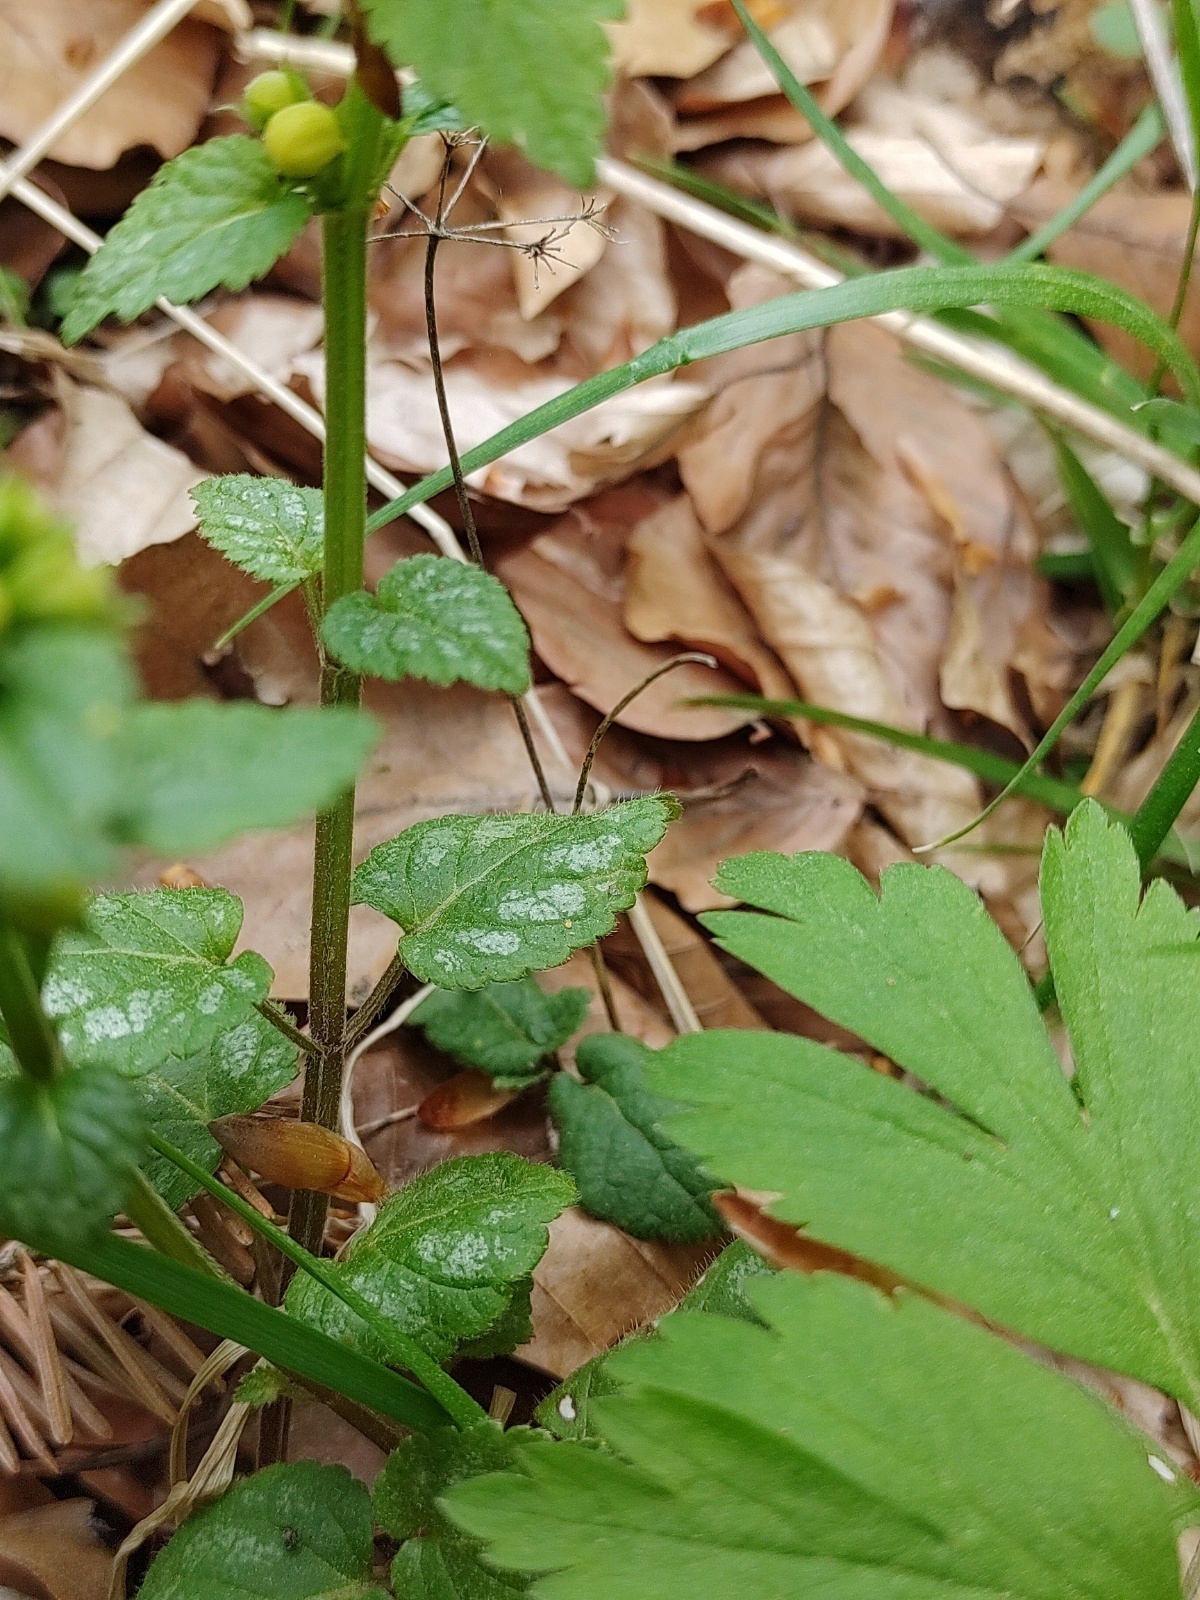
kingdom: Plantae
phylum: Tracheophyta
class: Magnoliopsida
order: Lamiales
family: Lamiaceae
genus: Lamium
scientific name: Lamium galeobdolon
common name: Yellow archangel
